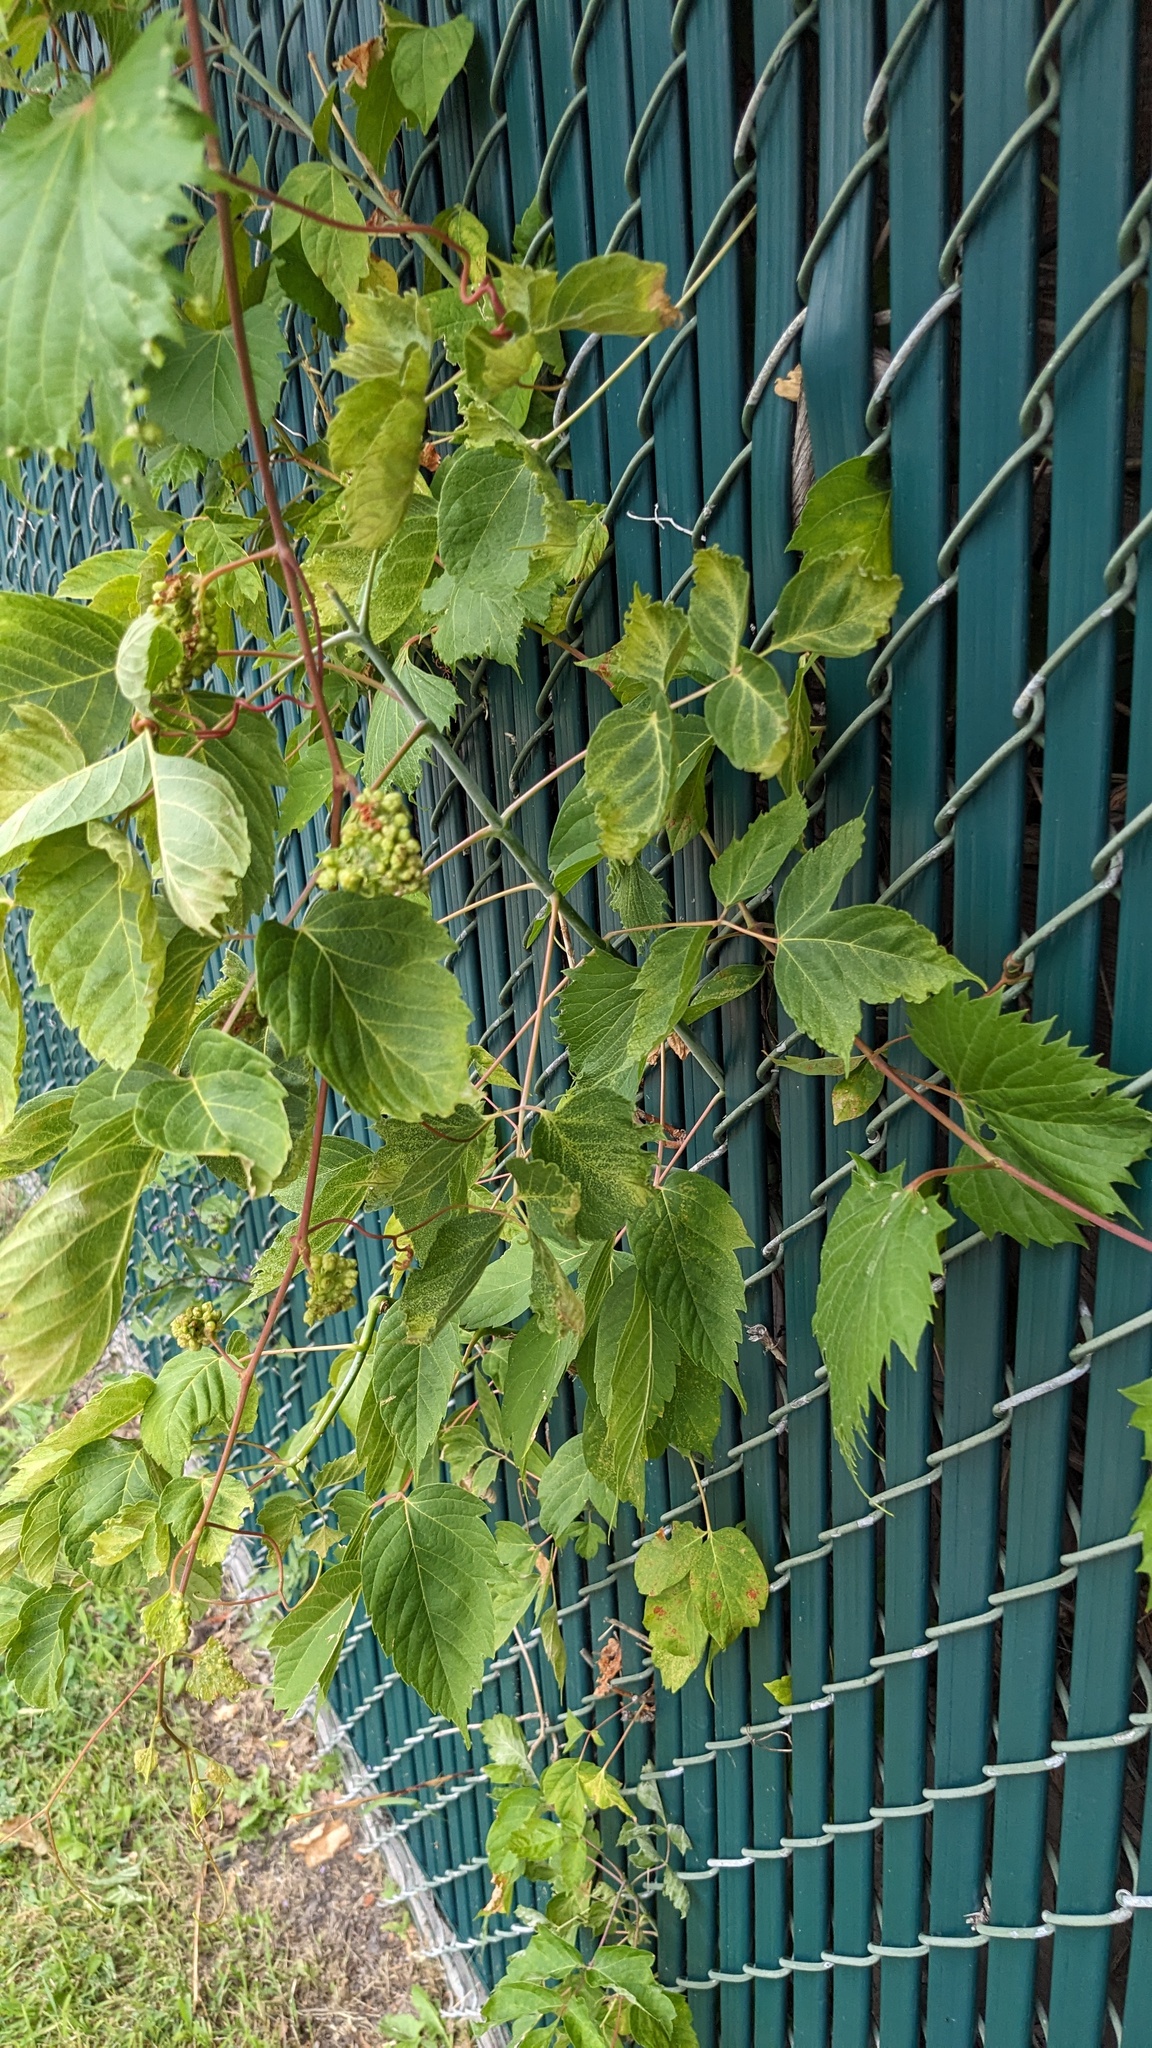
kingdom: Plantae
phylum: Tracheophyta
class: Magnoliopsida
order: Sapindales
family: Sapindaceae
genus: Acer
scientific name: Acer negundo
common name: Ashleaf maple
